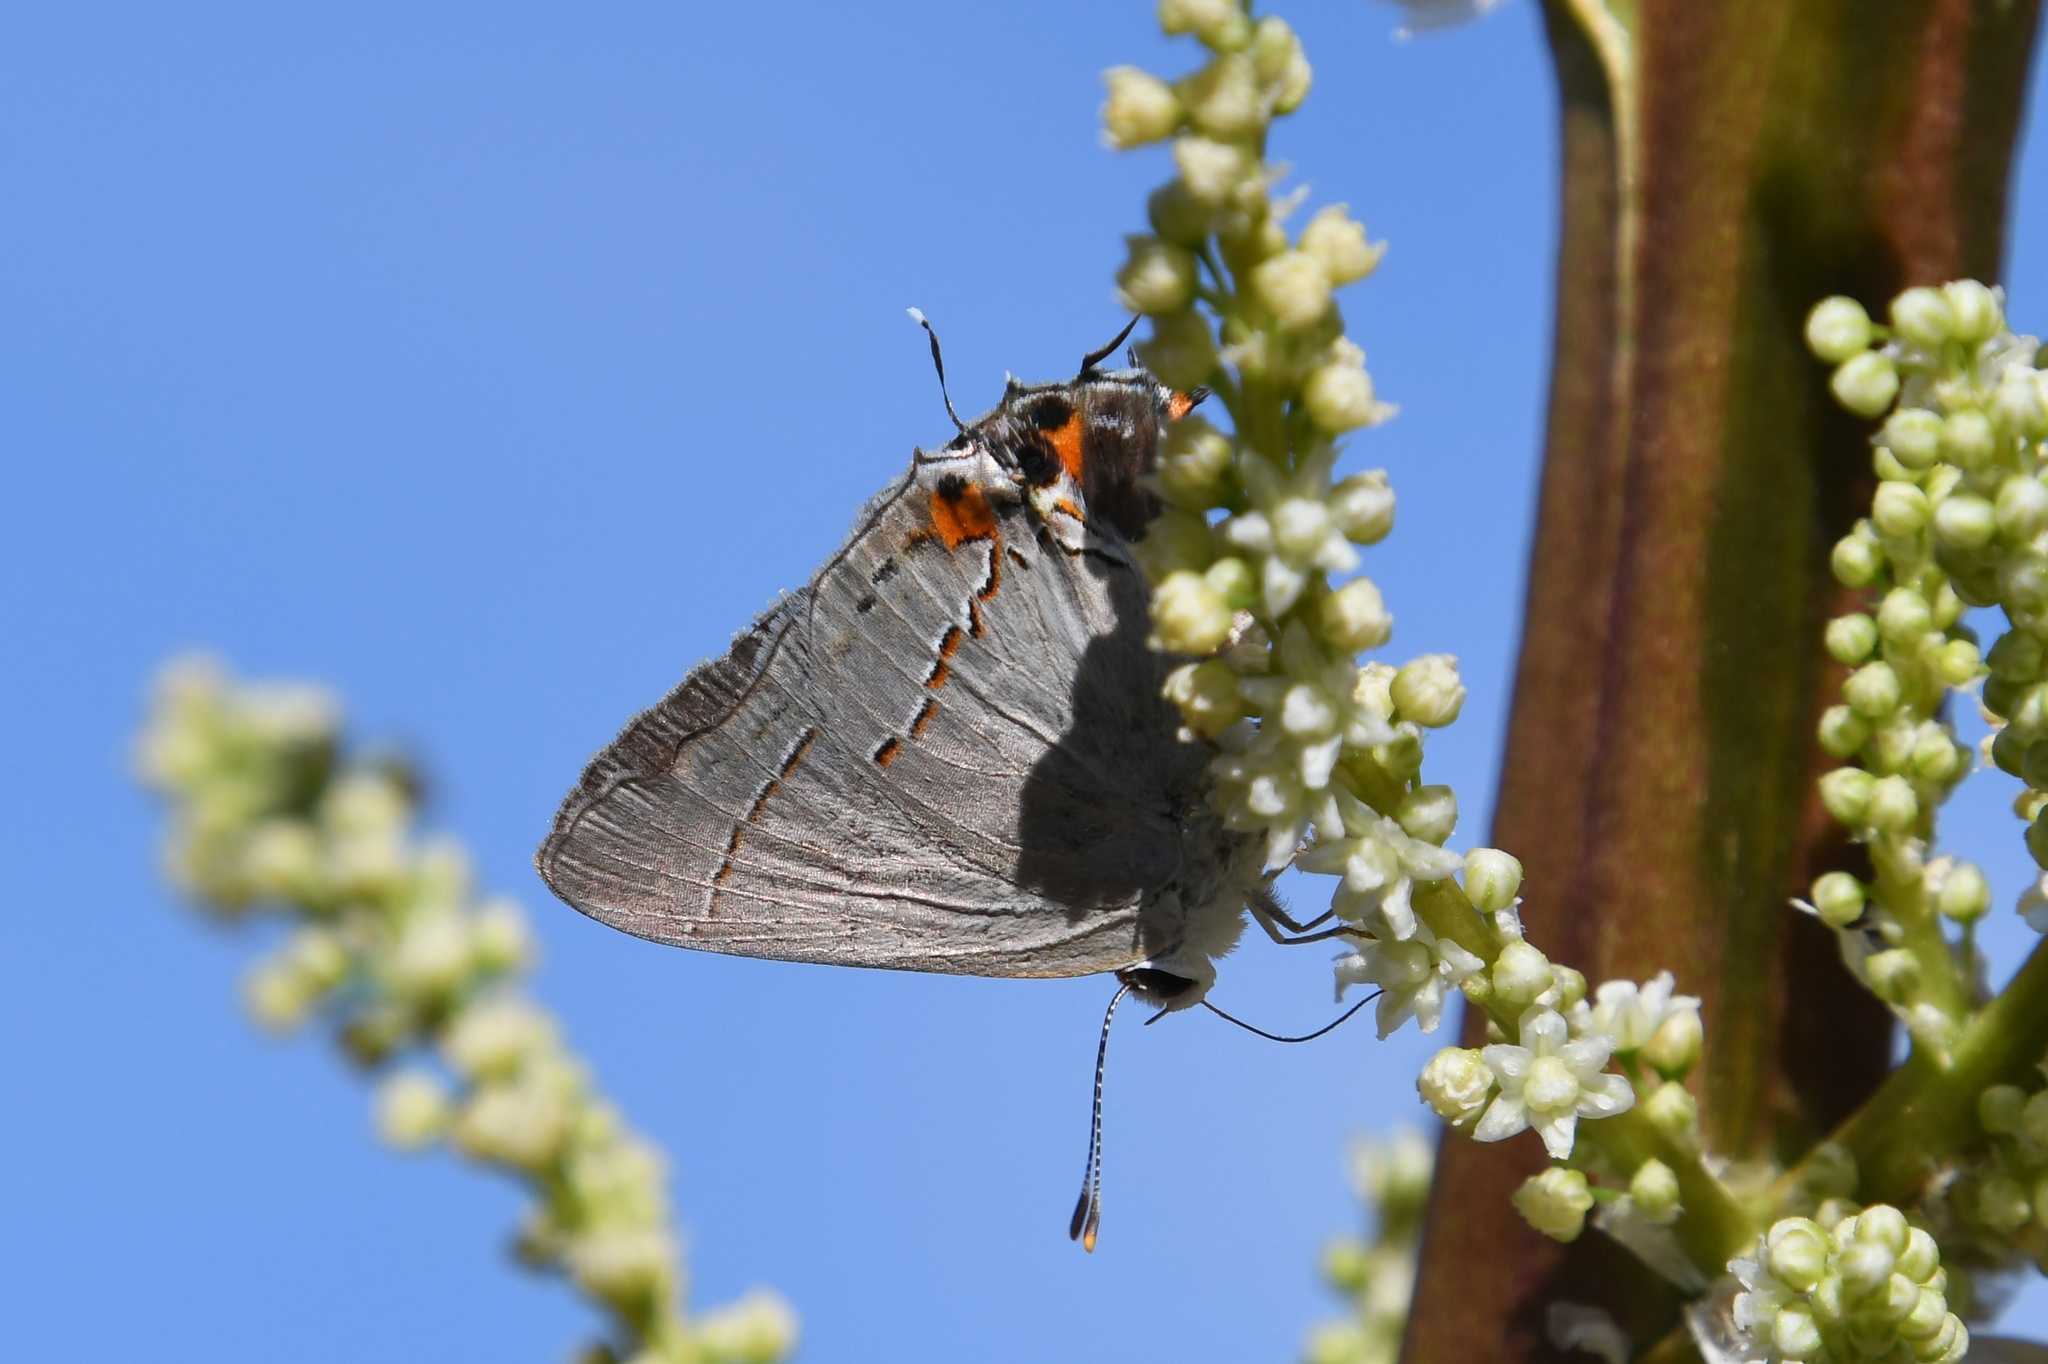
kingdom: Animalia
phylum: Arthropoda
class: Insecta
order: Lepidoptera
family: Lycaenidae
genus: Strymon
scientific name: Strymon melinus
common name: Gray hairstreak
